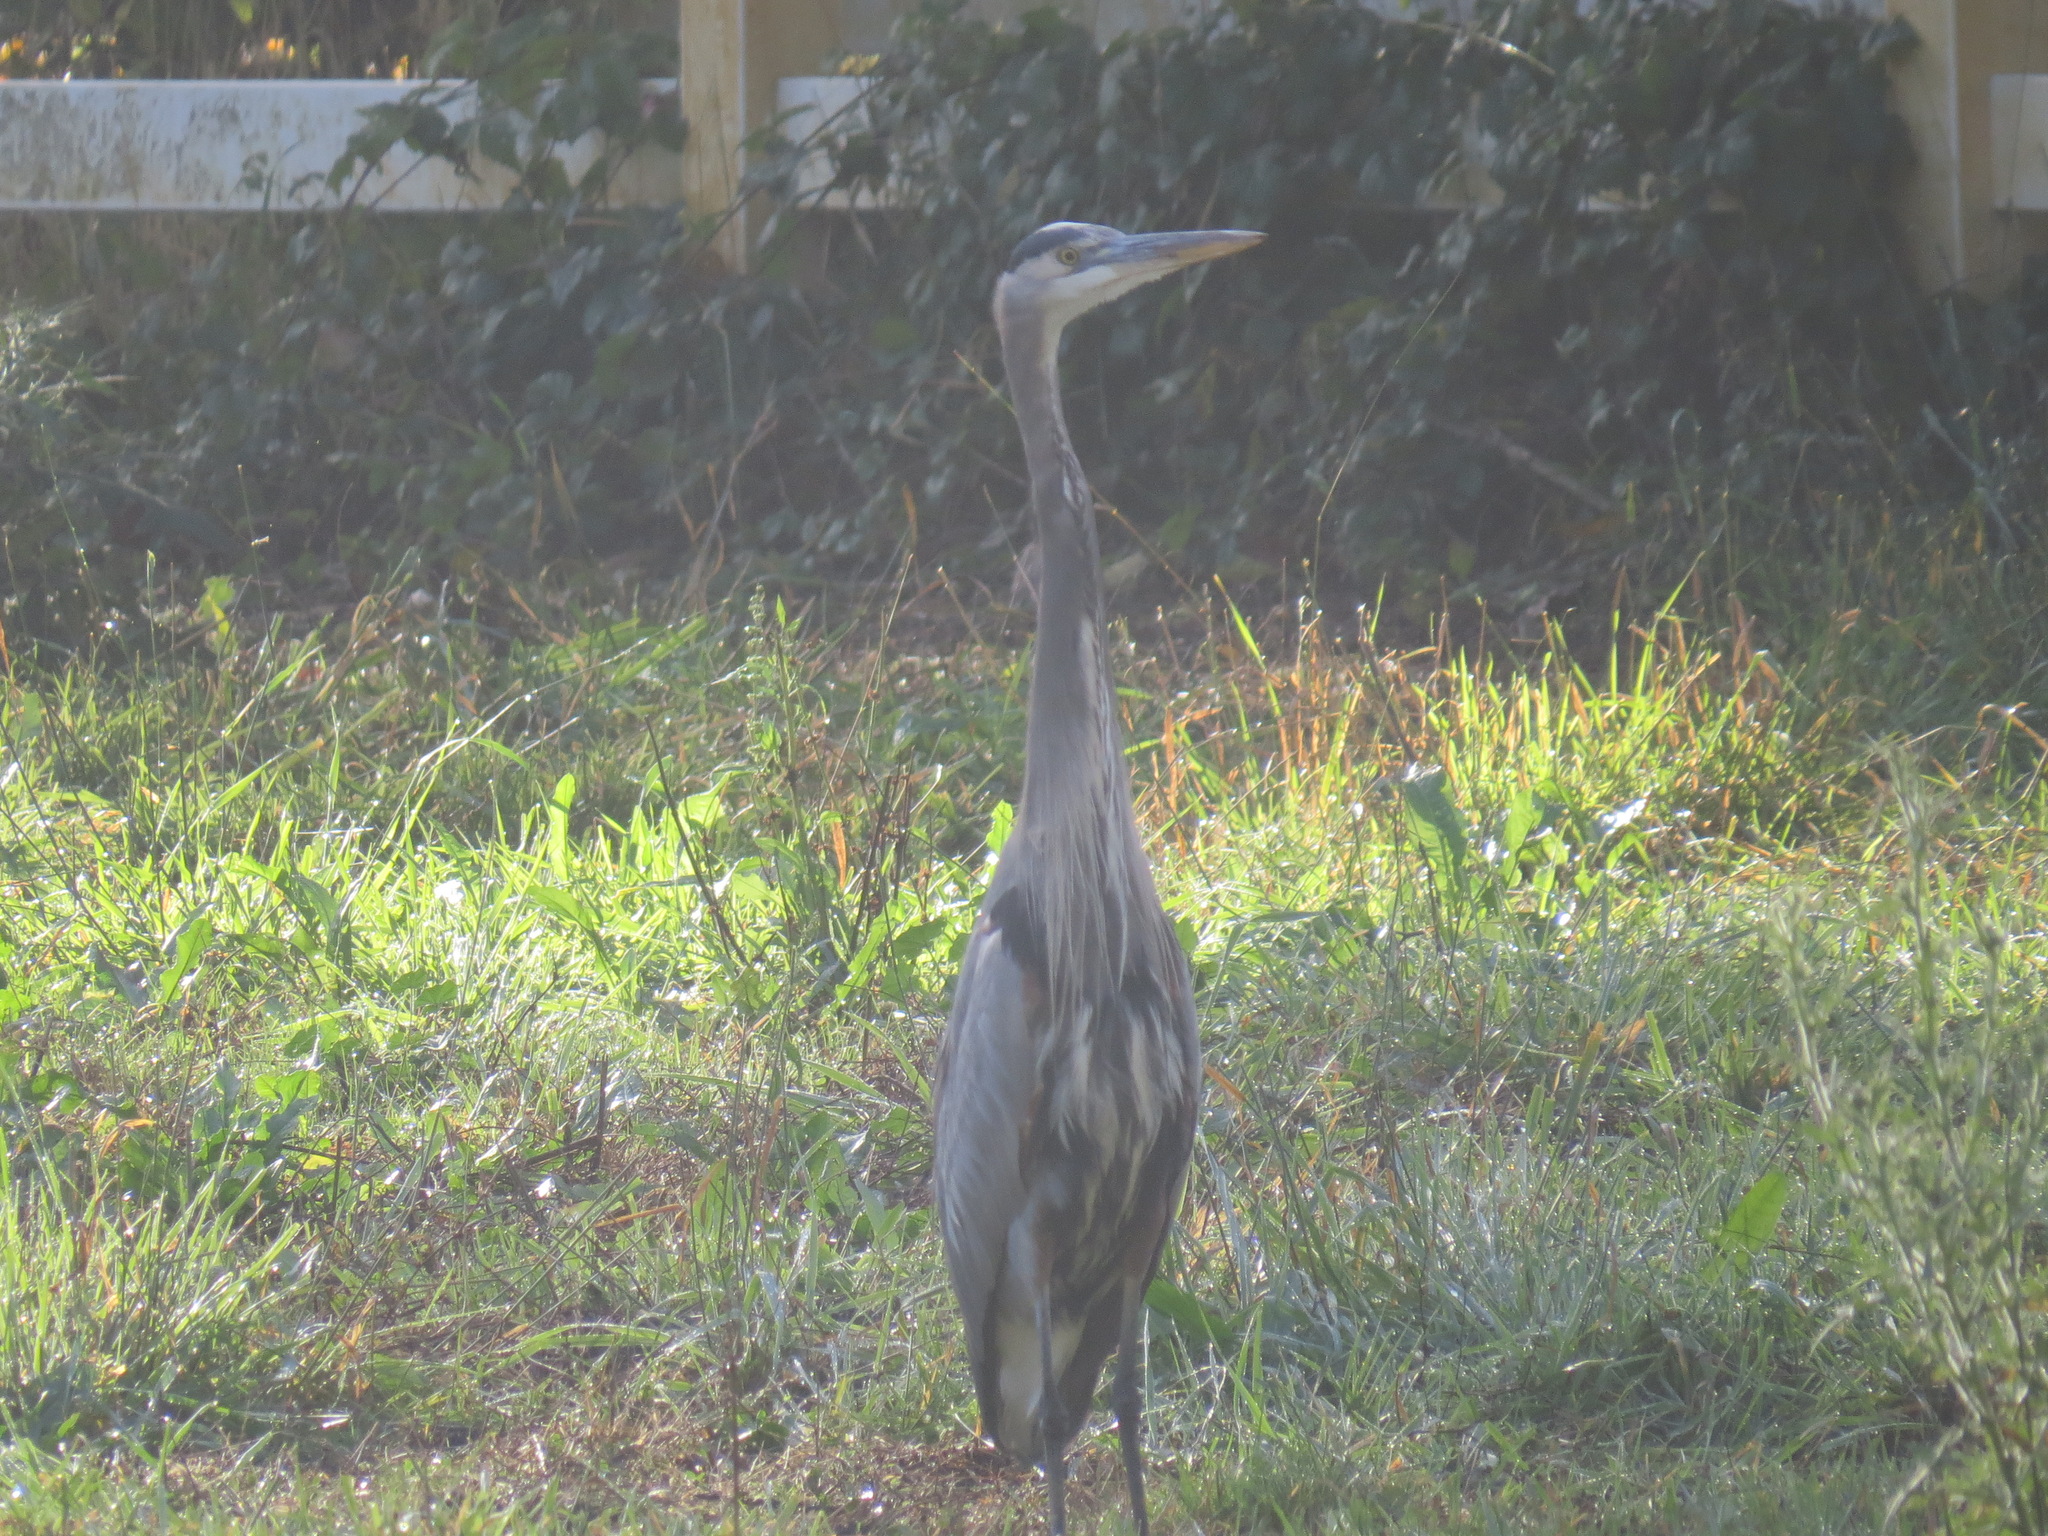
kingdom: Animalia
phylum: Chordata
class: Aves
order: Pelecaniformes
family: Ardeidae
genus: Ardea
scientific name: Ardea herodias
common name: Great blue heron
